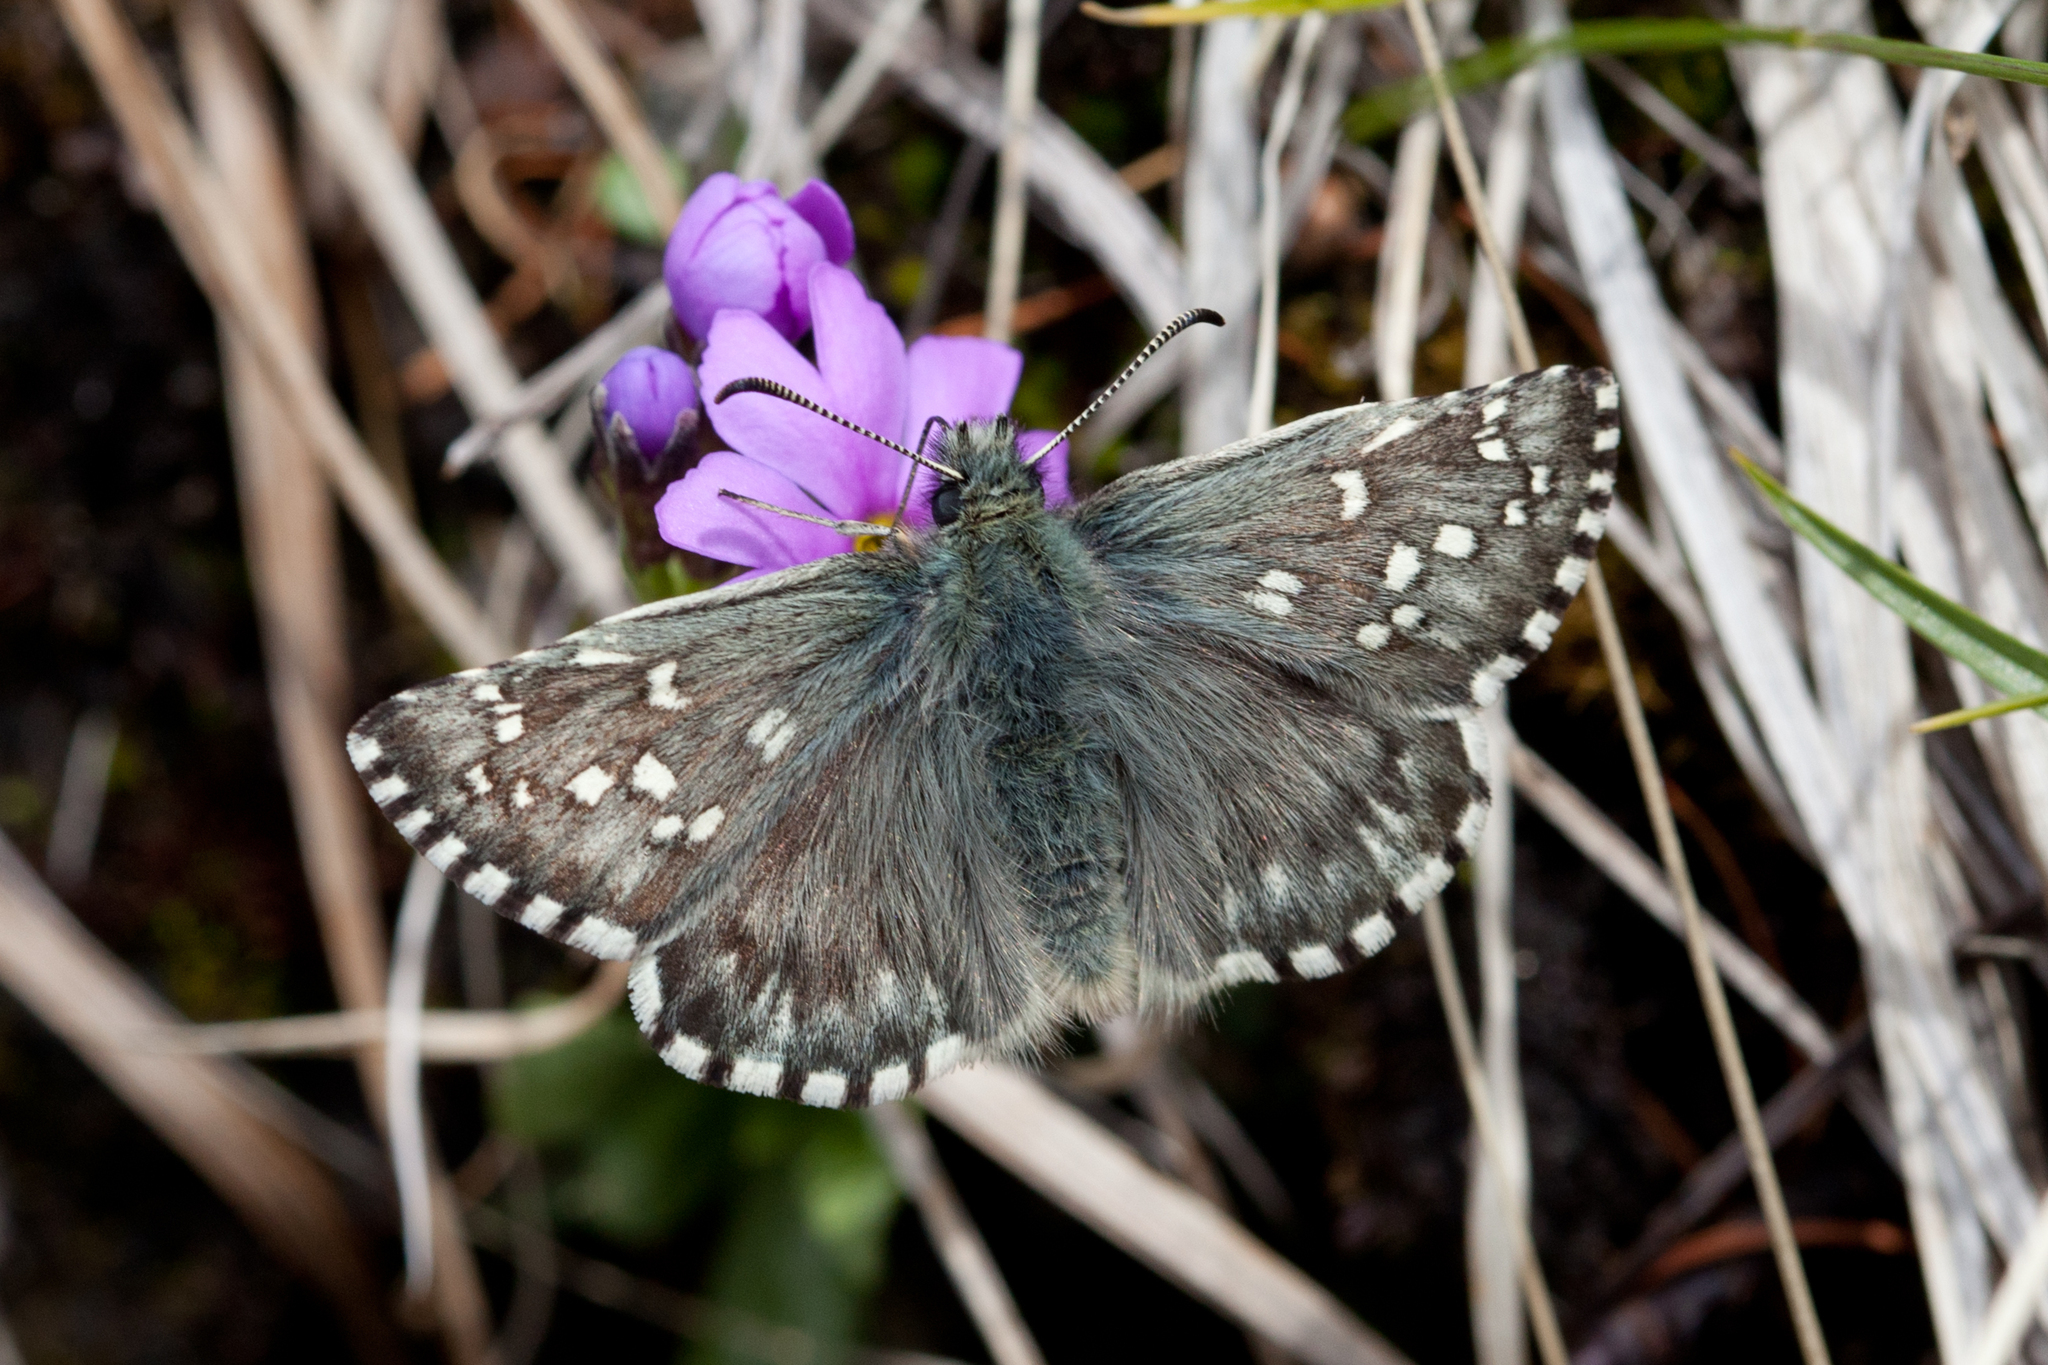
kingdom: Animalia
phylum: Arthropoda
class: Insecta
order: Lepidoptera
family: Hesperiidae
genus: Pyrgus
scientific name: Pyrgus
